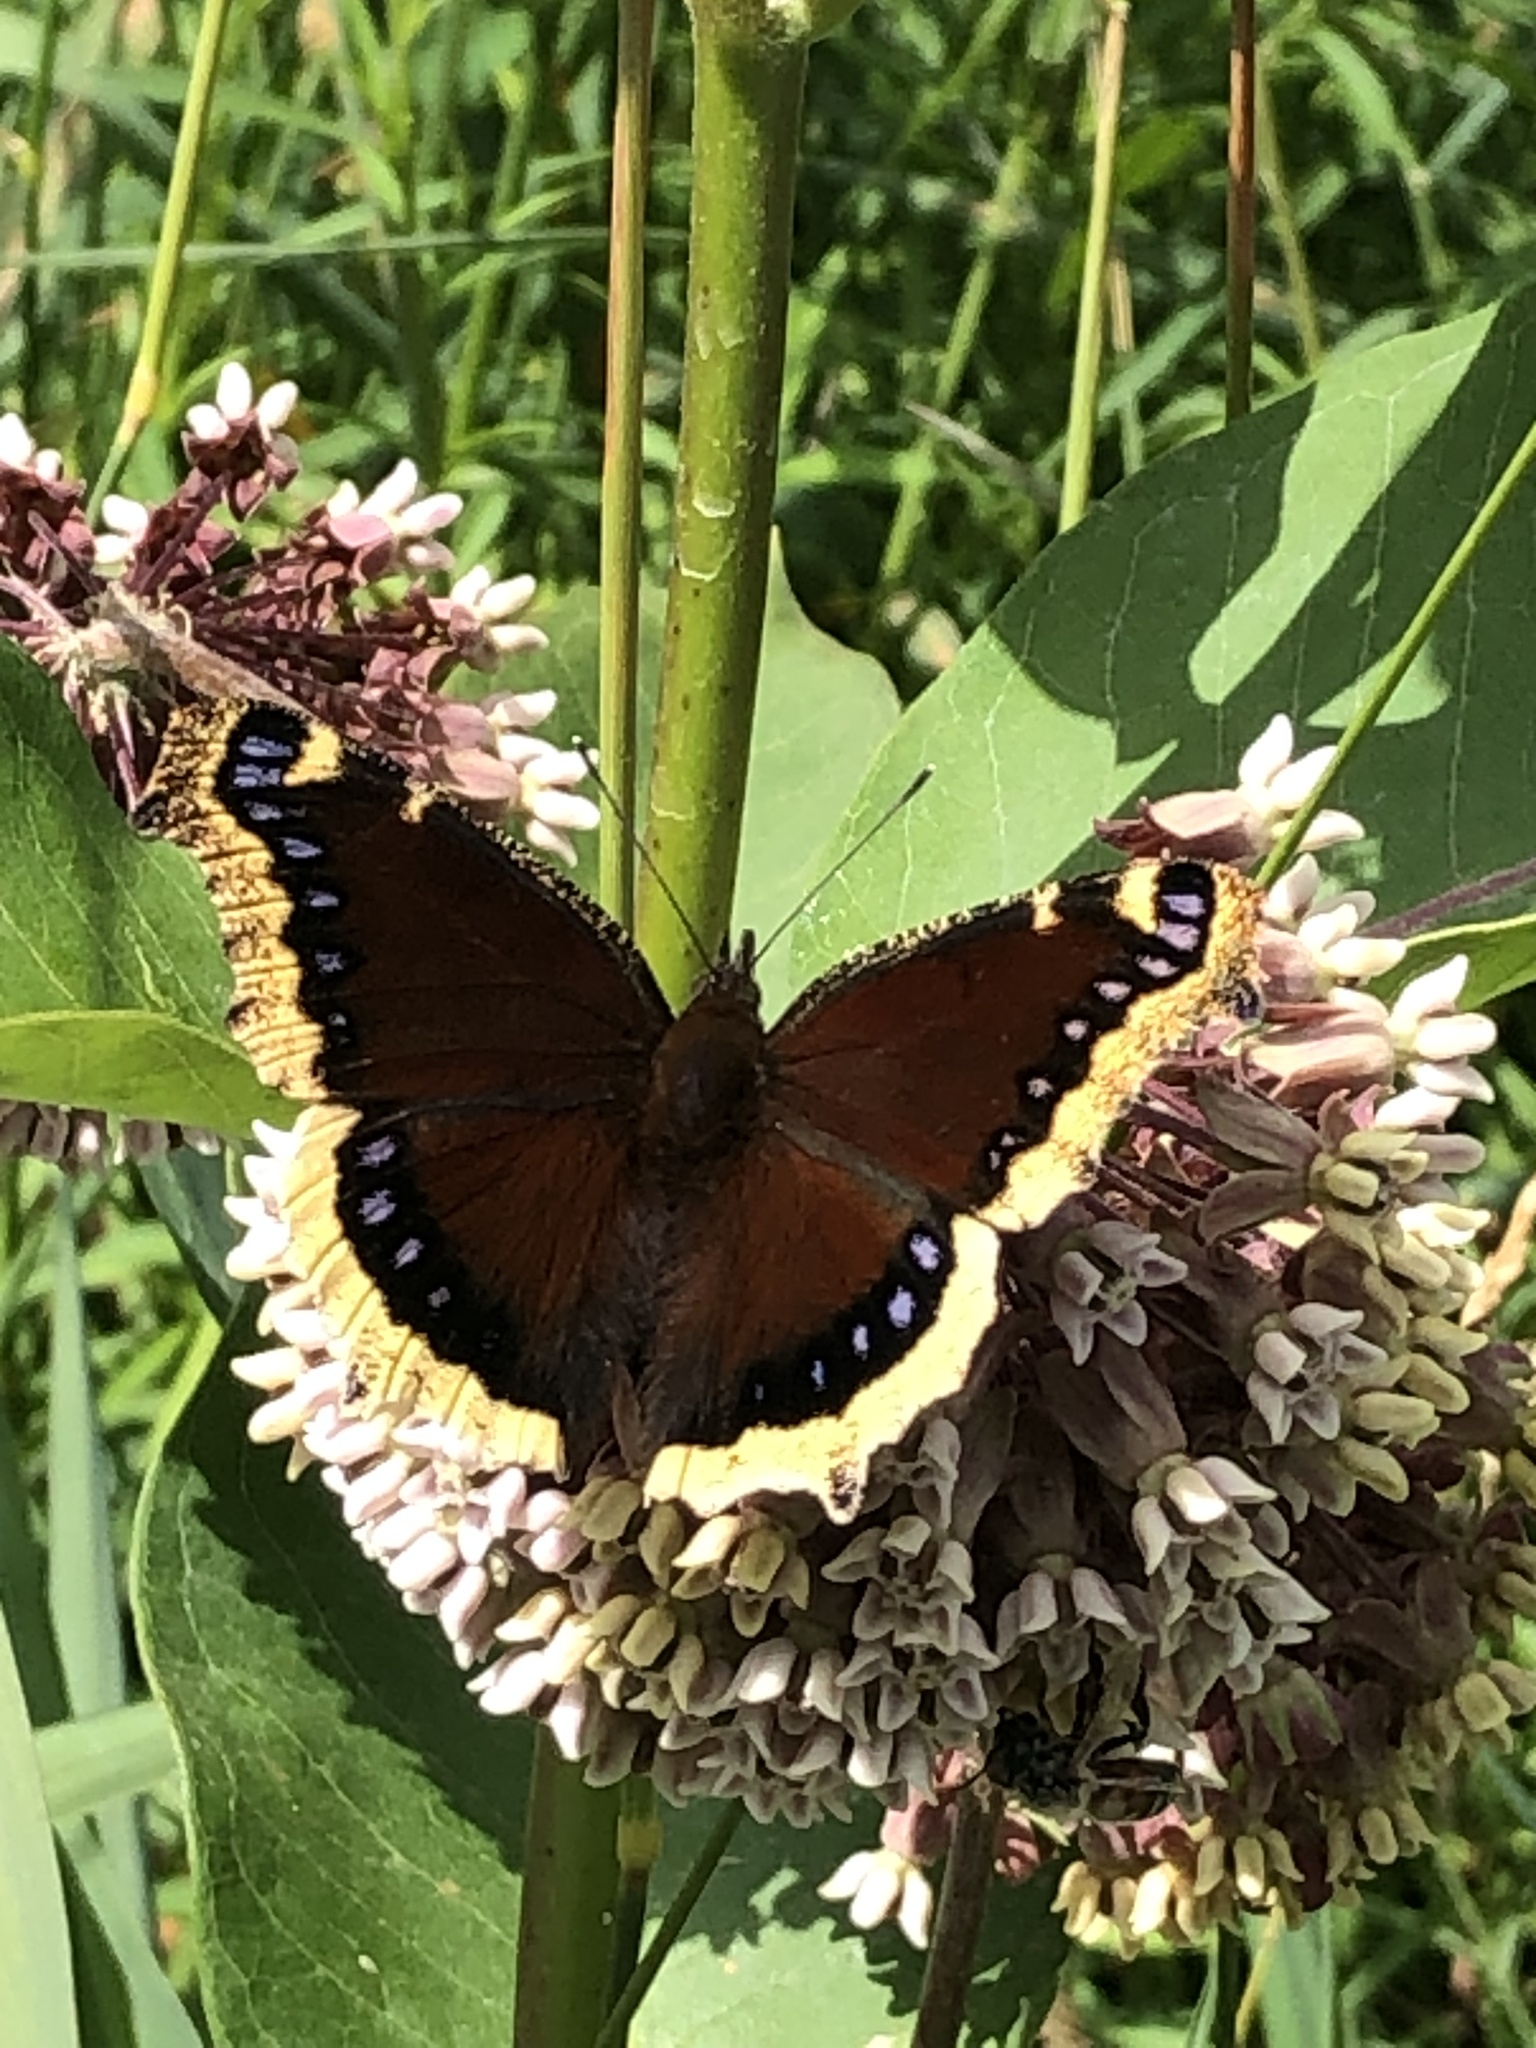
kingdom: Animalia
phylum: Arthropoda
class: Insecta
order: Lepidoptera
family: Nymphalidae
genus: Nymphalis
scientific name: Nymphalis antiopa
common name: Camberwell beauty
